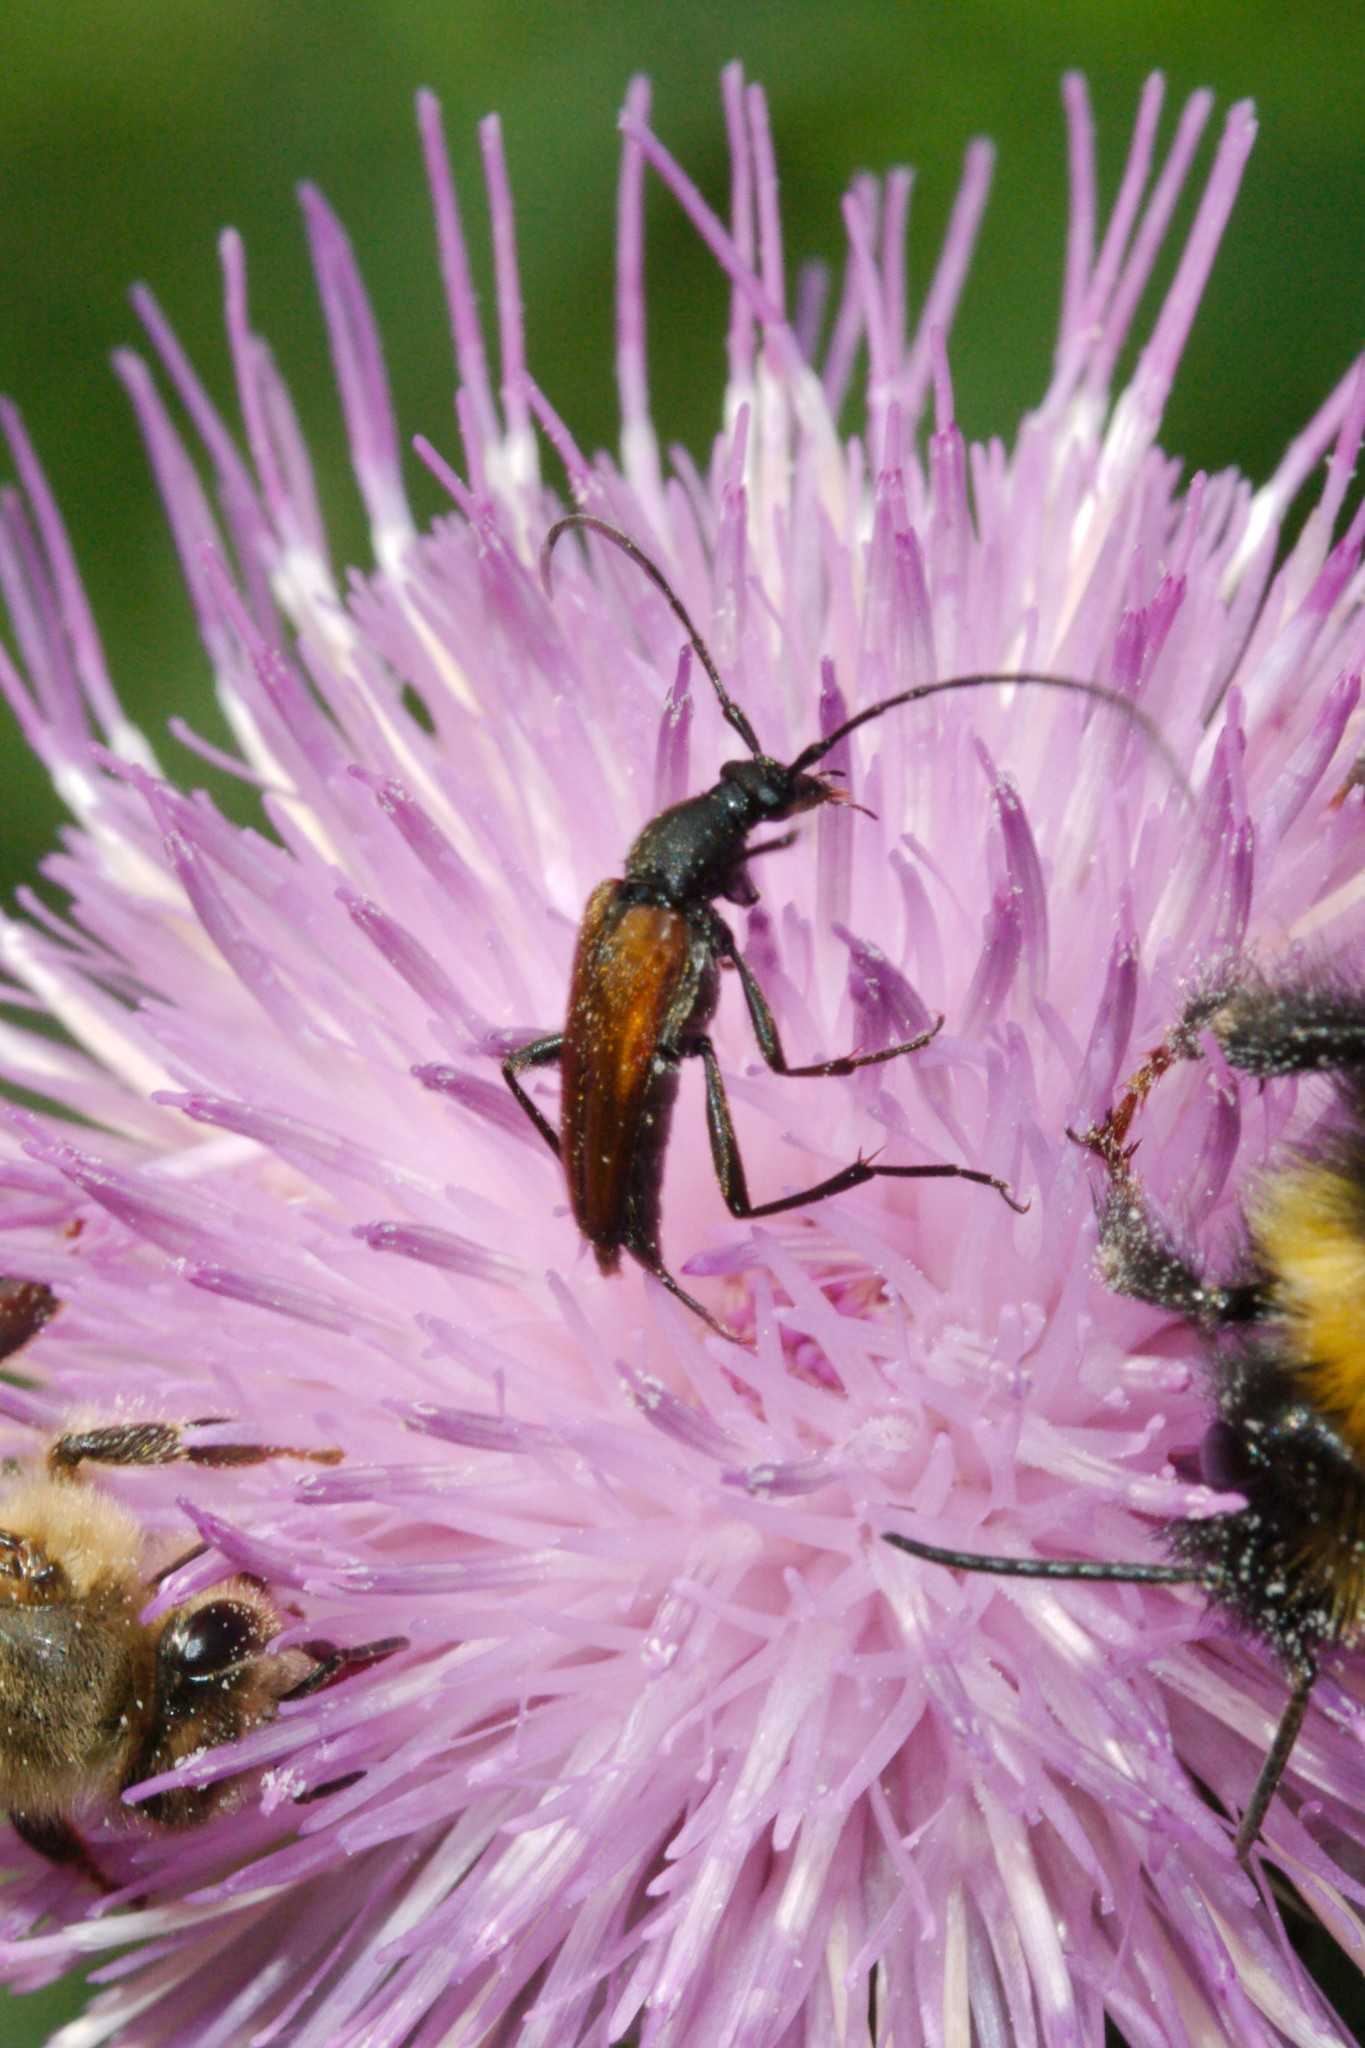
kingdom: Animalia
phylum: Arthropoda
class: Insecta
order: Coleoptera
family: Cerambycidae
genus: Stenurella
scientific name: Stenurella melanura
